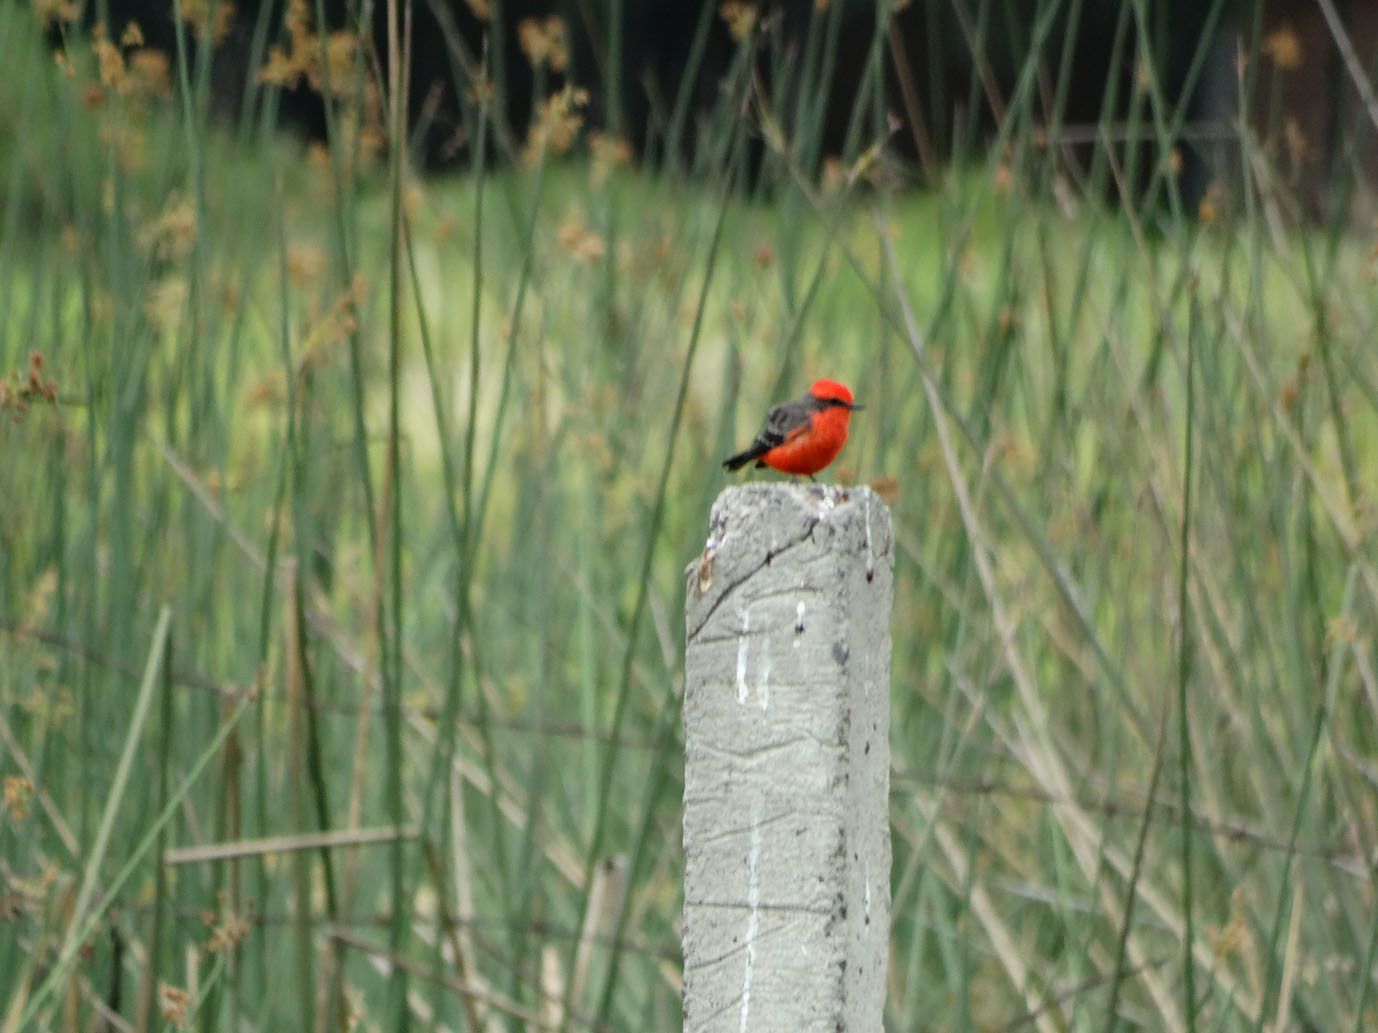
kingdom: Animalia
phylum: Chordata
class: Aves
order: Passeriformes
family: Tyrannidae
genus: Pyrocephalus
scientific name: Pyrocephalus rubinus
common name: Vermilion flycatcher
